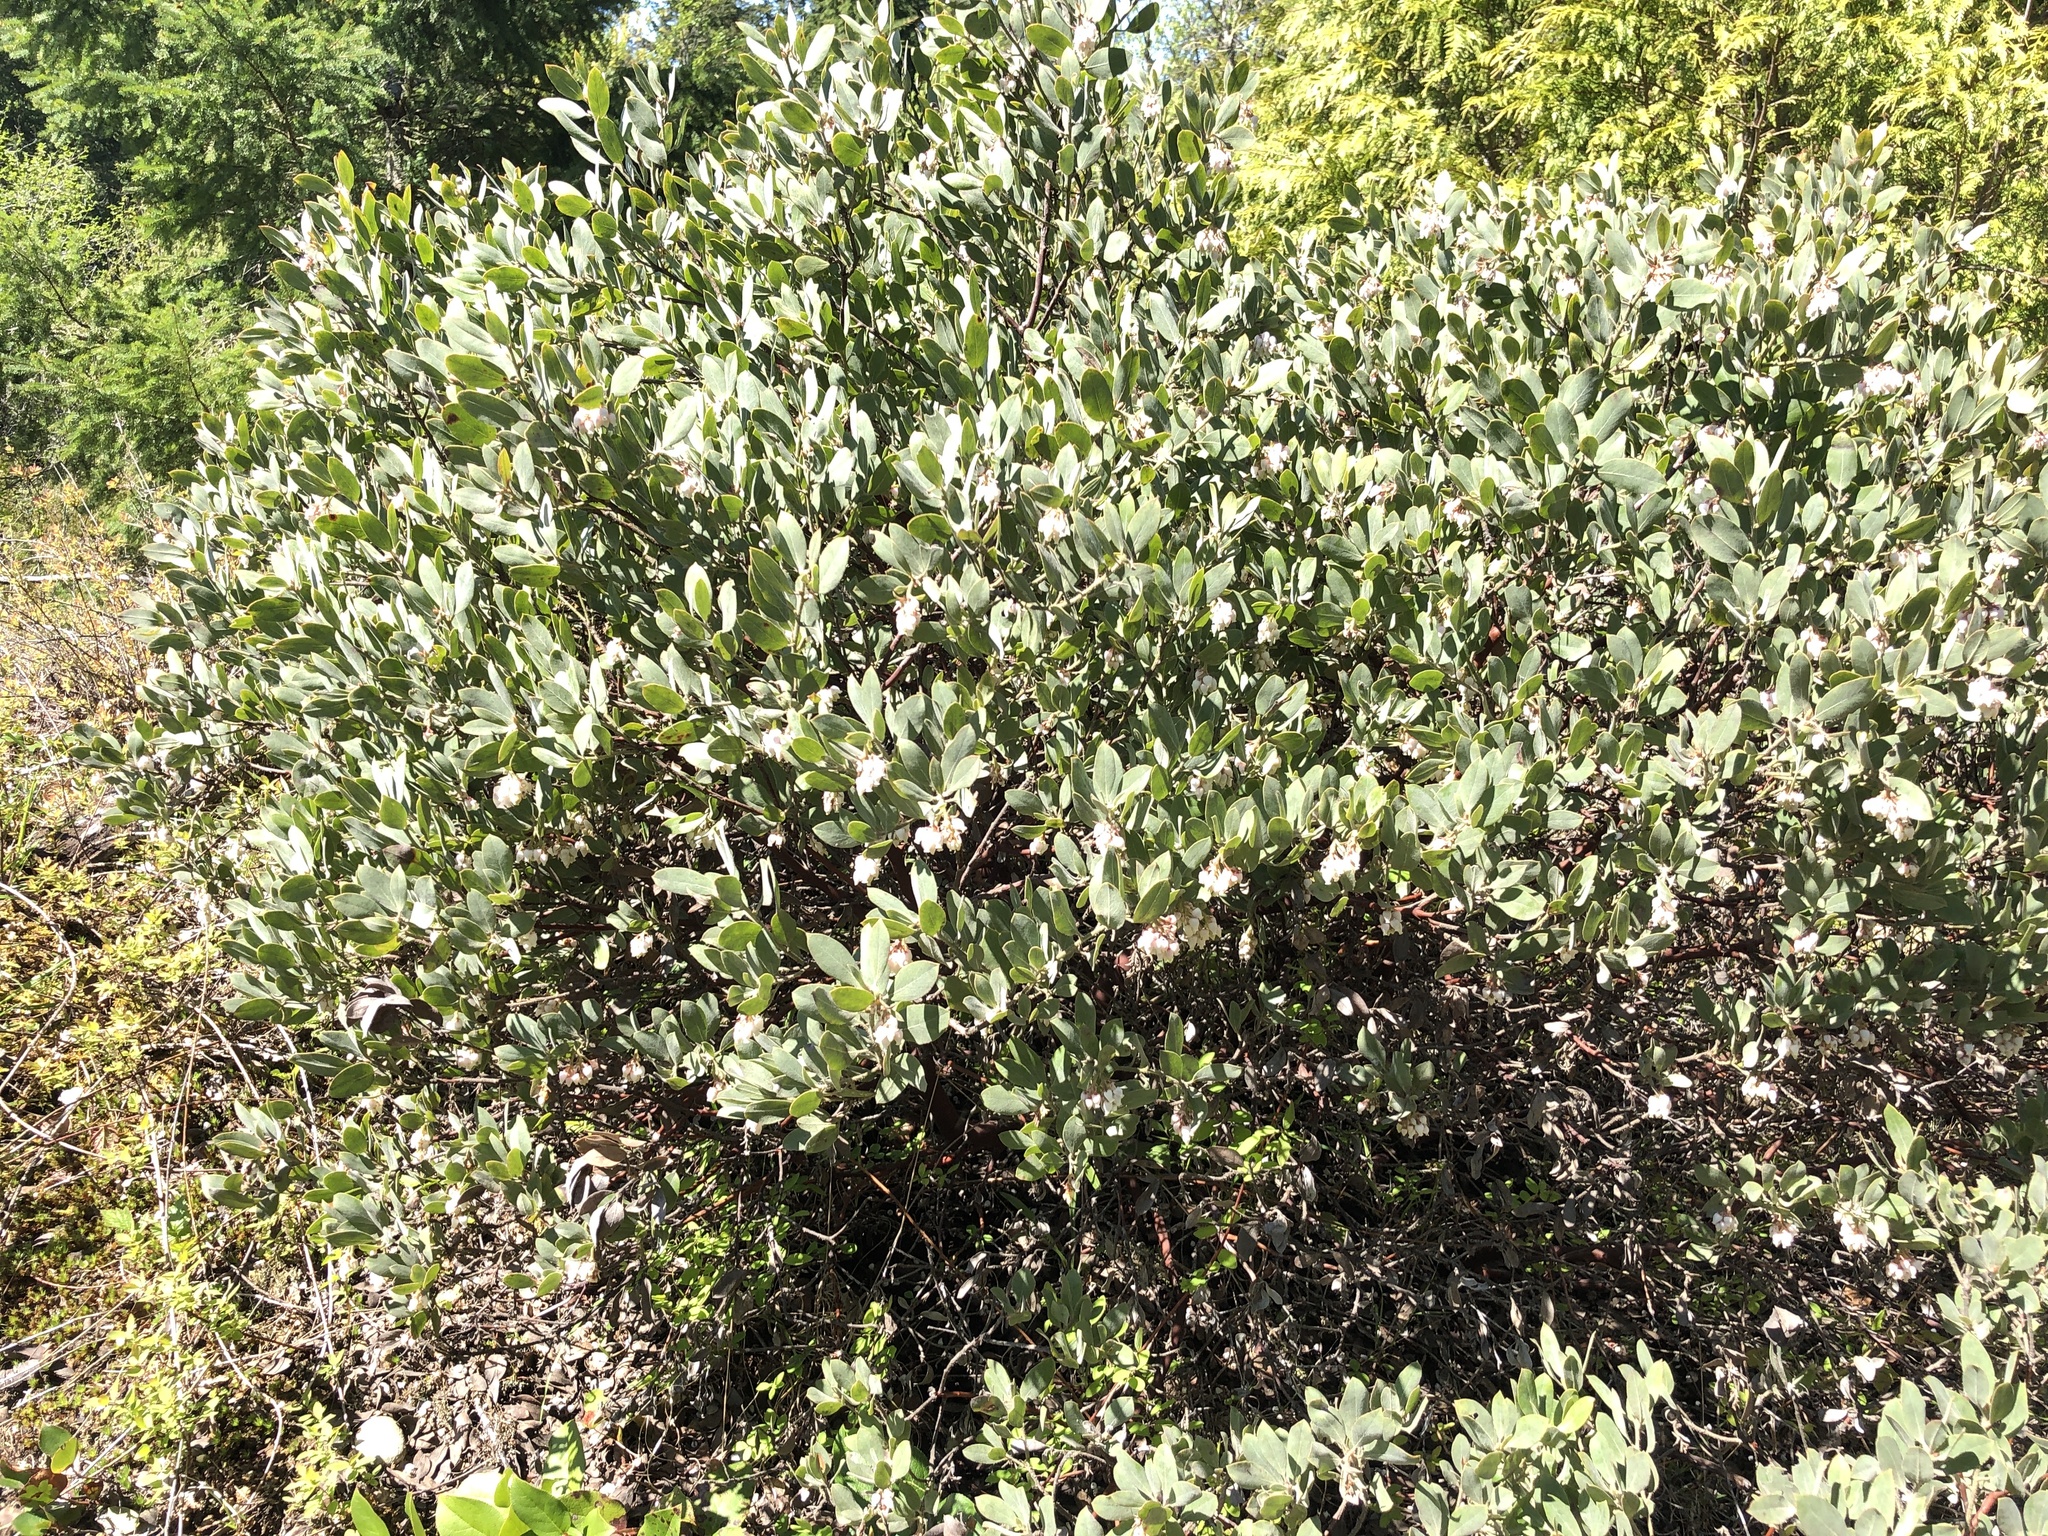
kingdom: Plantae
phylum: Tracheophyta
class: Magnoliopsida
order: Ericales
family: Ericaceae
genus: Arctostaphylos
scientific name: Arctostaphylos columbiana
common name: Bristly bearberry
